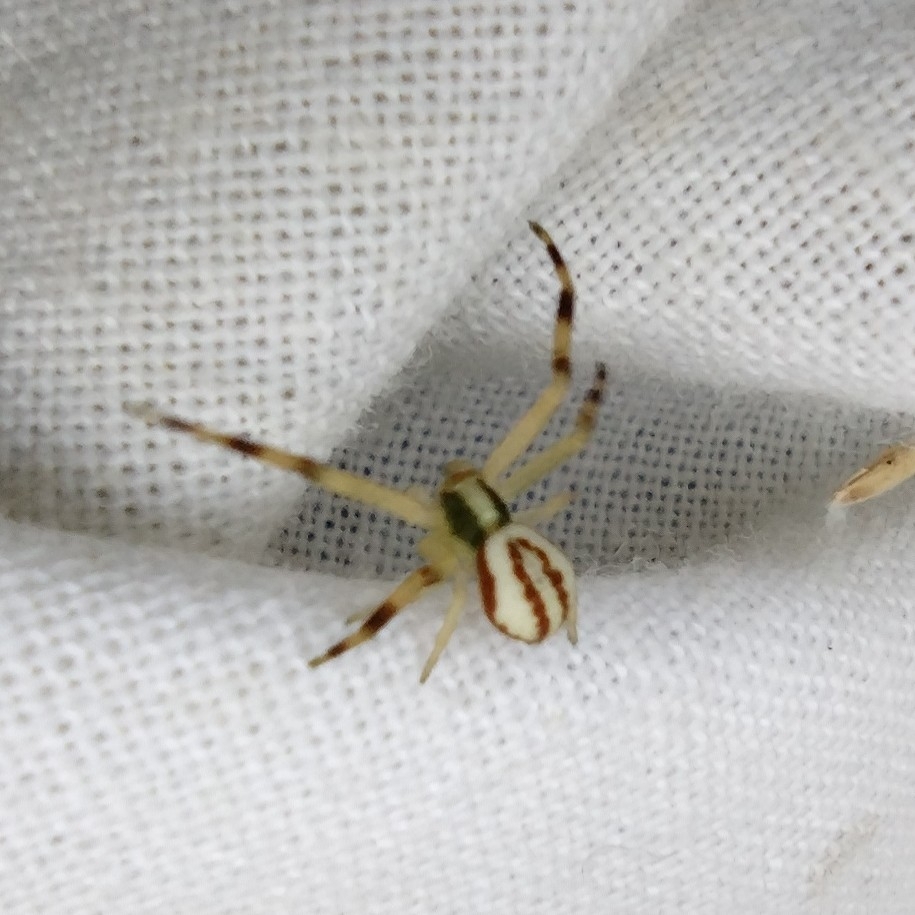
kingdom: Animalia
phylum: Arthropoda
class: Arachnida
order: Araneae
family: Thomisidae
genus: Misumena
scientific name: Misumena vatia
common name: Goldenrod crab spider
